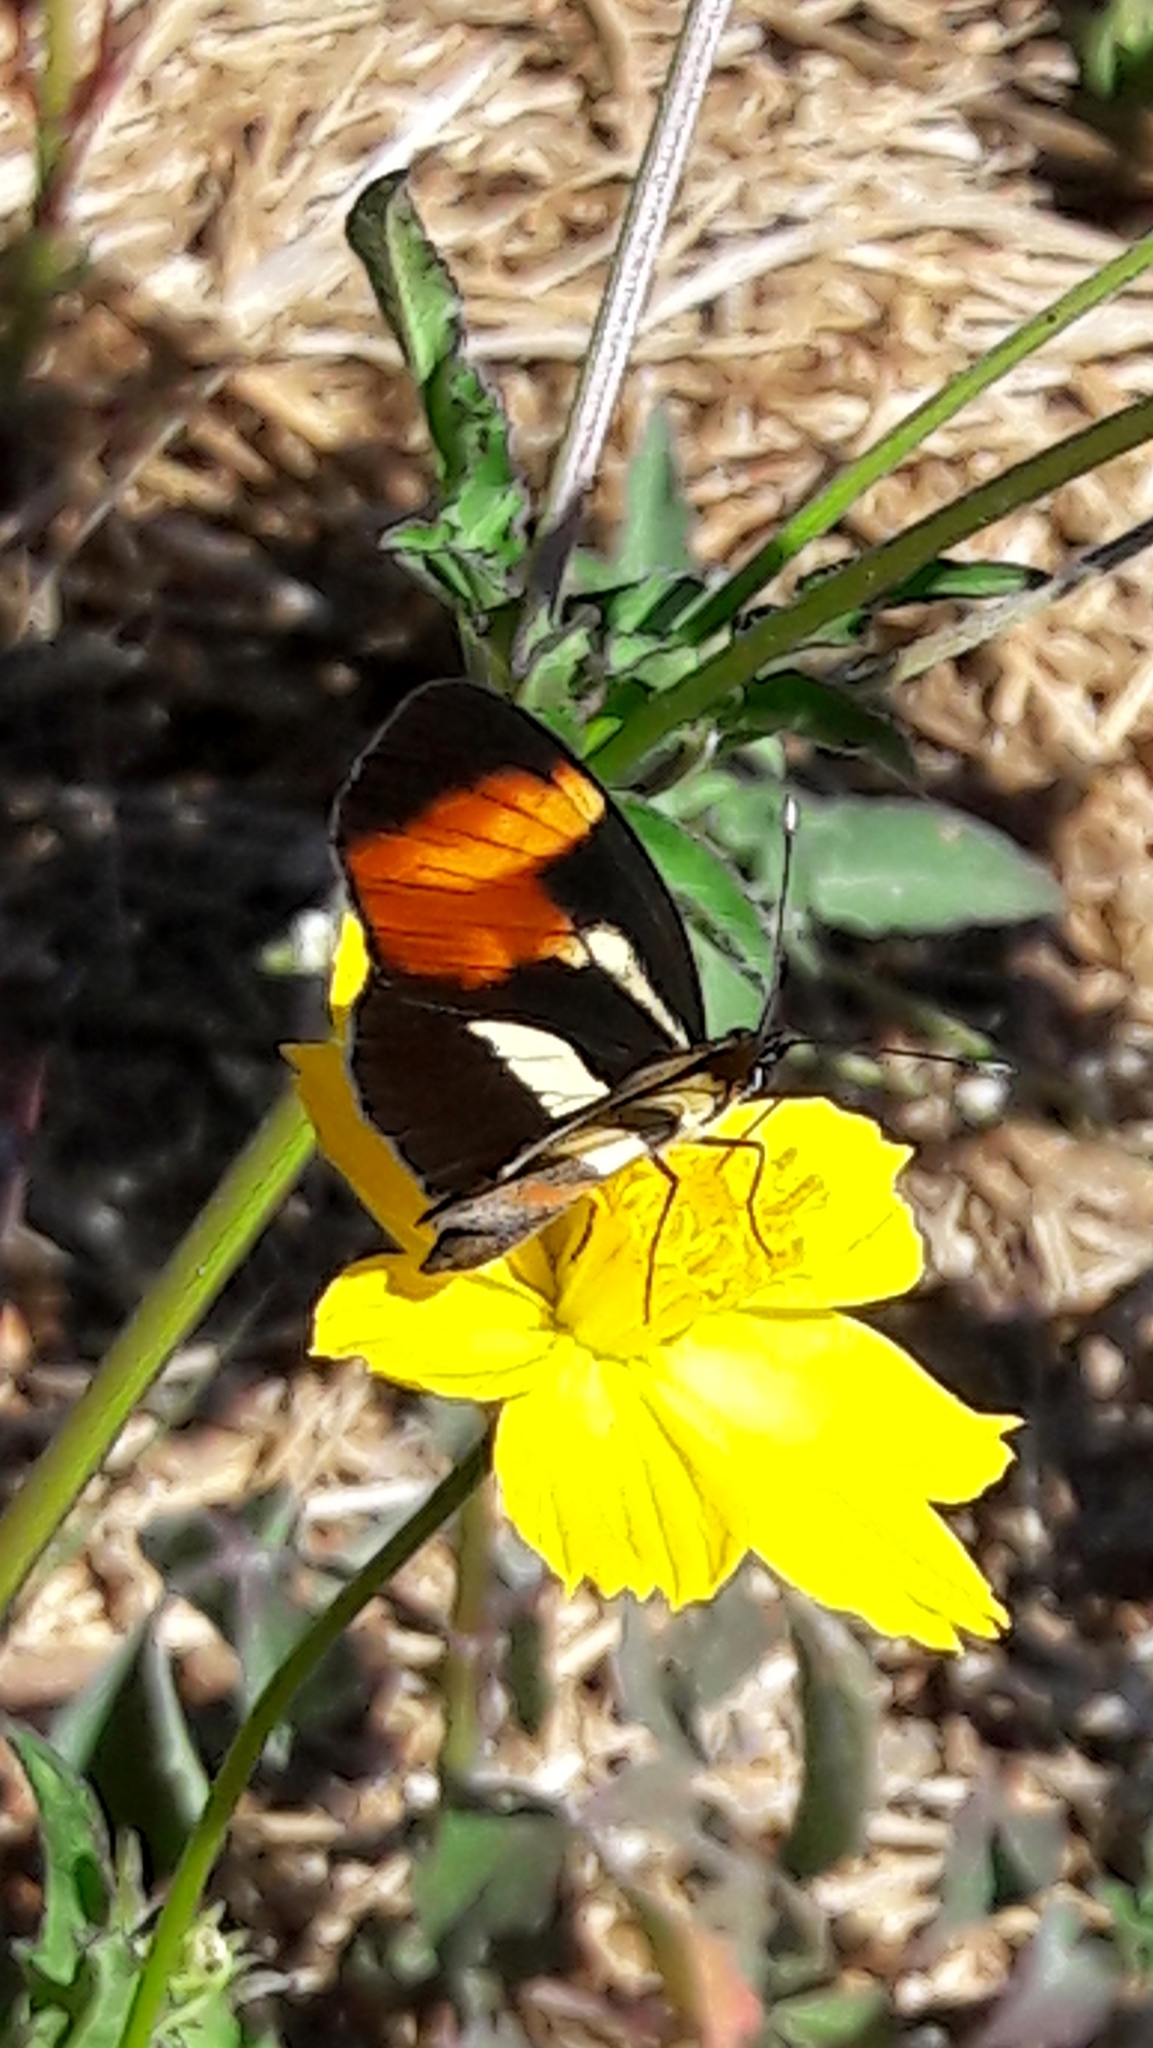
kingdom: Animalia
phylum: Arthropoda
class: Insecta
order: Lepidoptera
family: Nymphalidae
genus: Eresia
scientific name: Eresia lansdorfi
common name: Lansdorf's crescent
